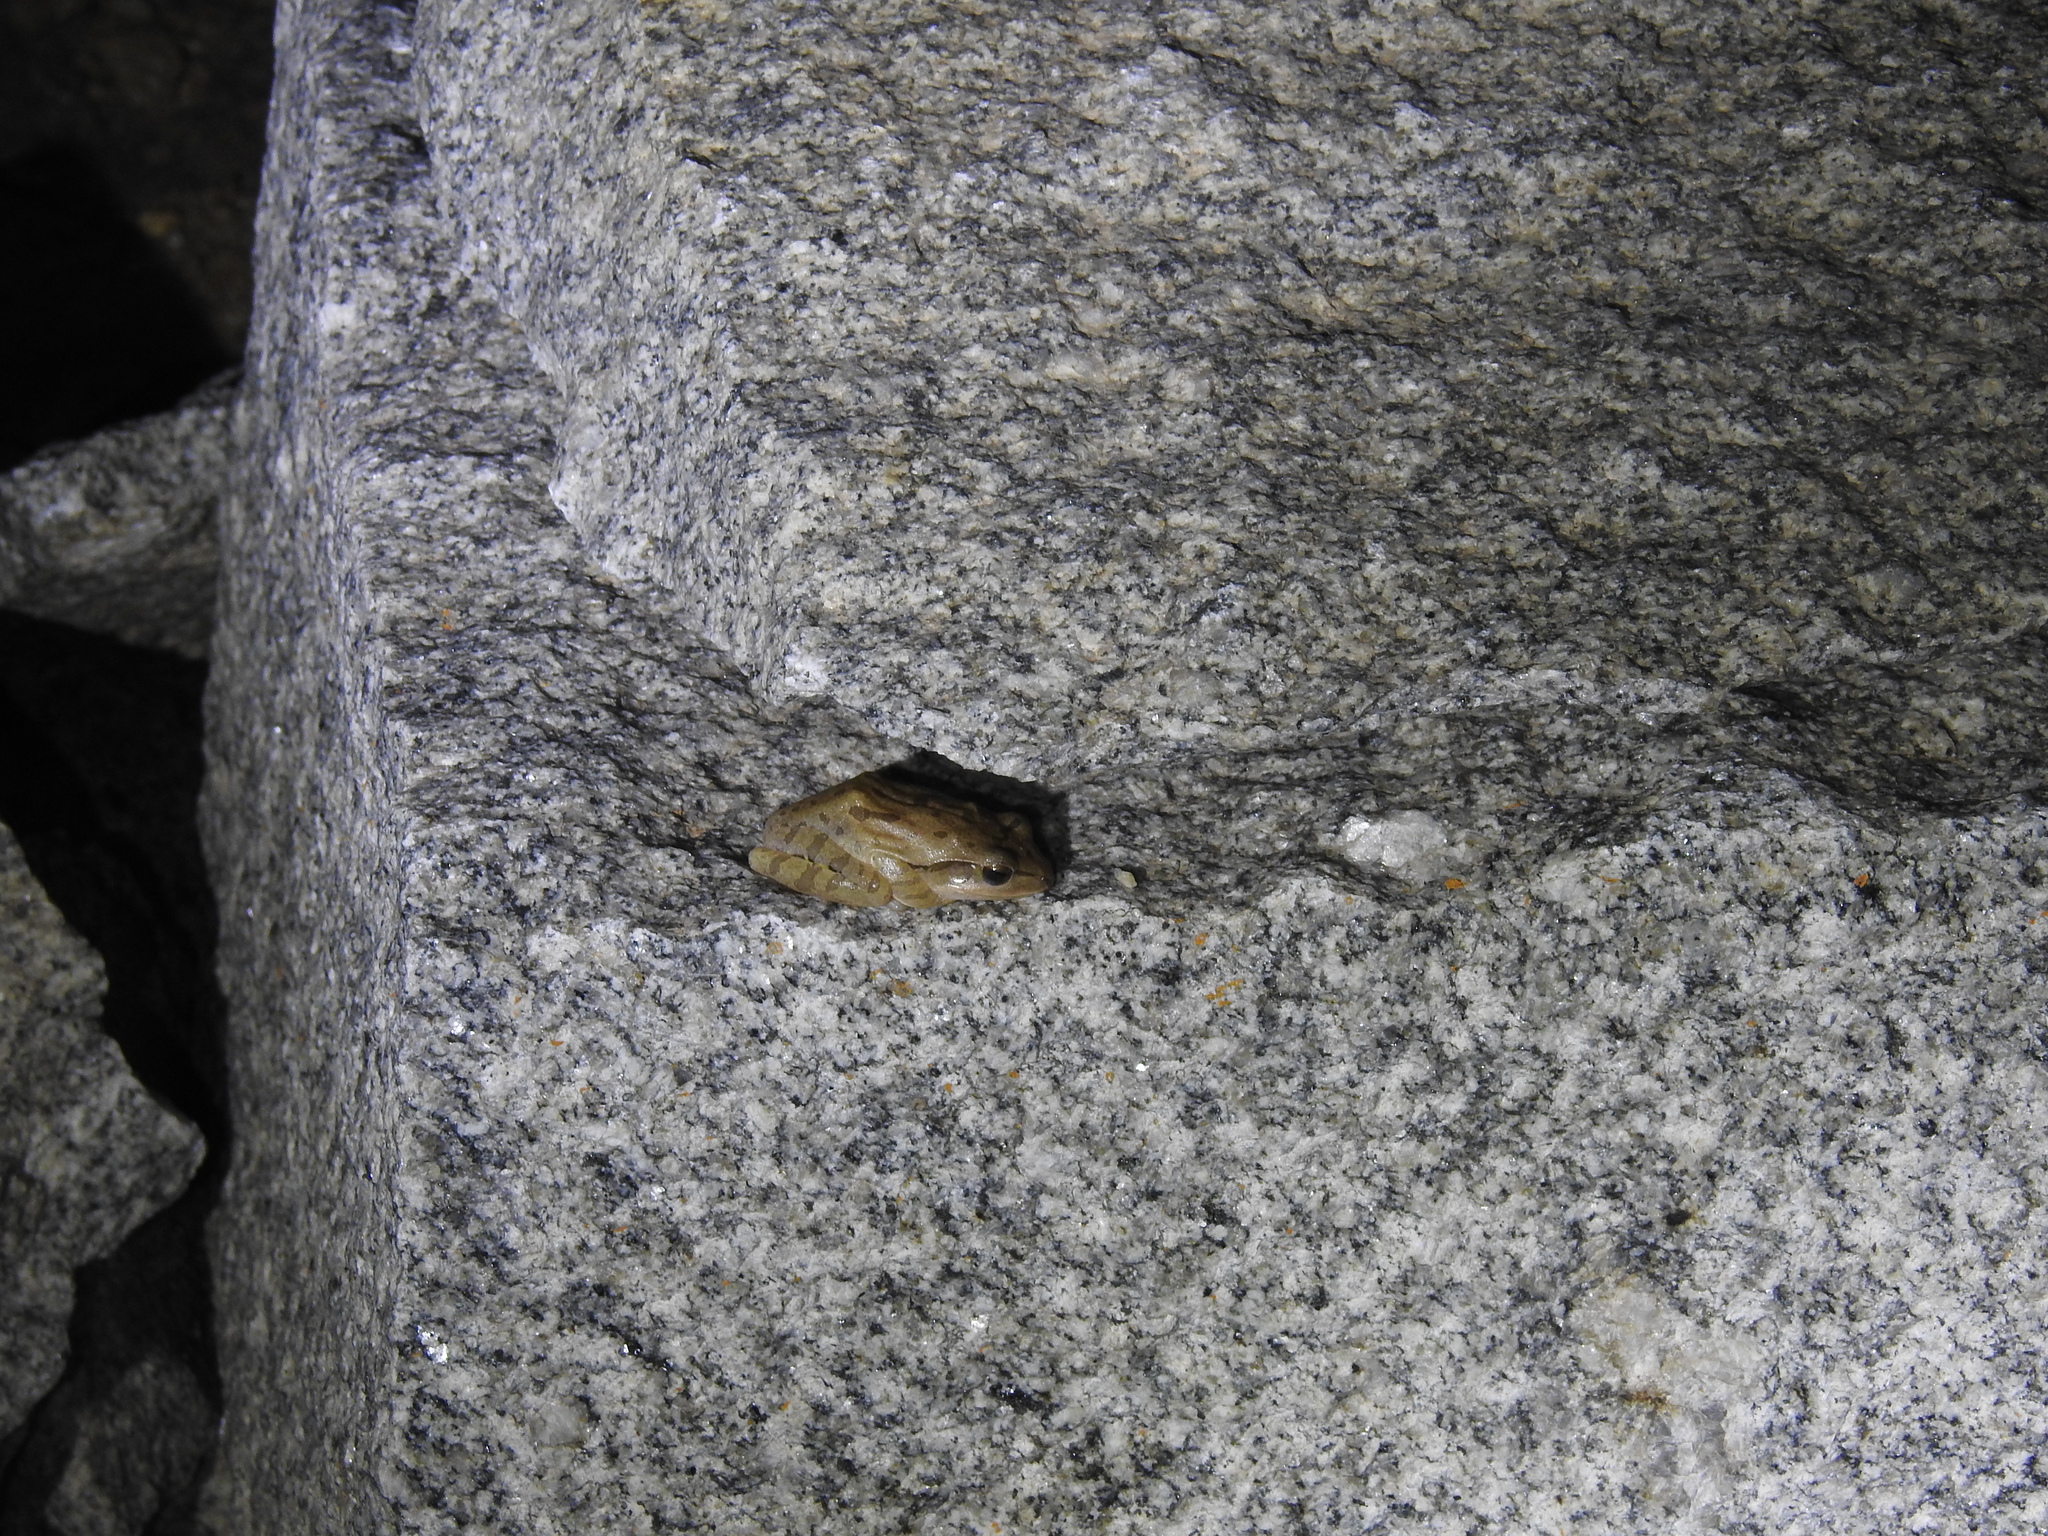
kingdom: Animalia
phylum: Chordata
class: Amphibia
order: Anura
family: Rhacophoridae
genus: Polypedates
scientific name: Polypedates maculatus
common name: Himalayan tree frog
